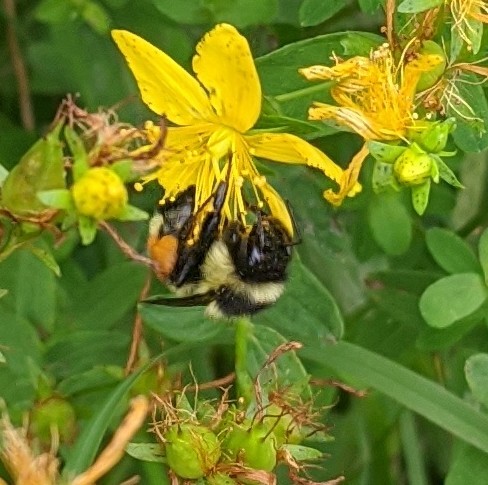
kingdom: Animalia
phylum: Arthropoda
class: Insecta
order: Hymenoptera
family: Apidae
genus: Bombus
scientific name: Bombus ternarius
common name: Tri-colored bumble bee
